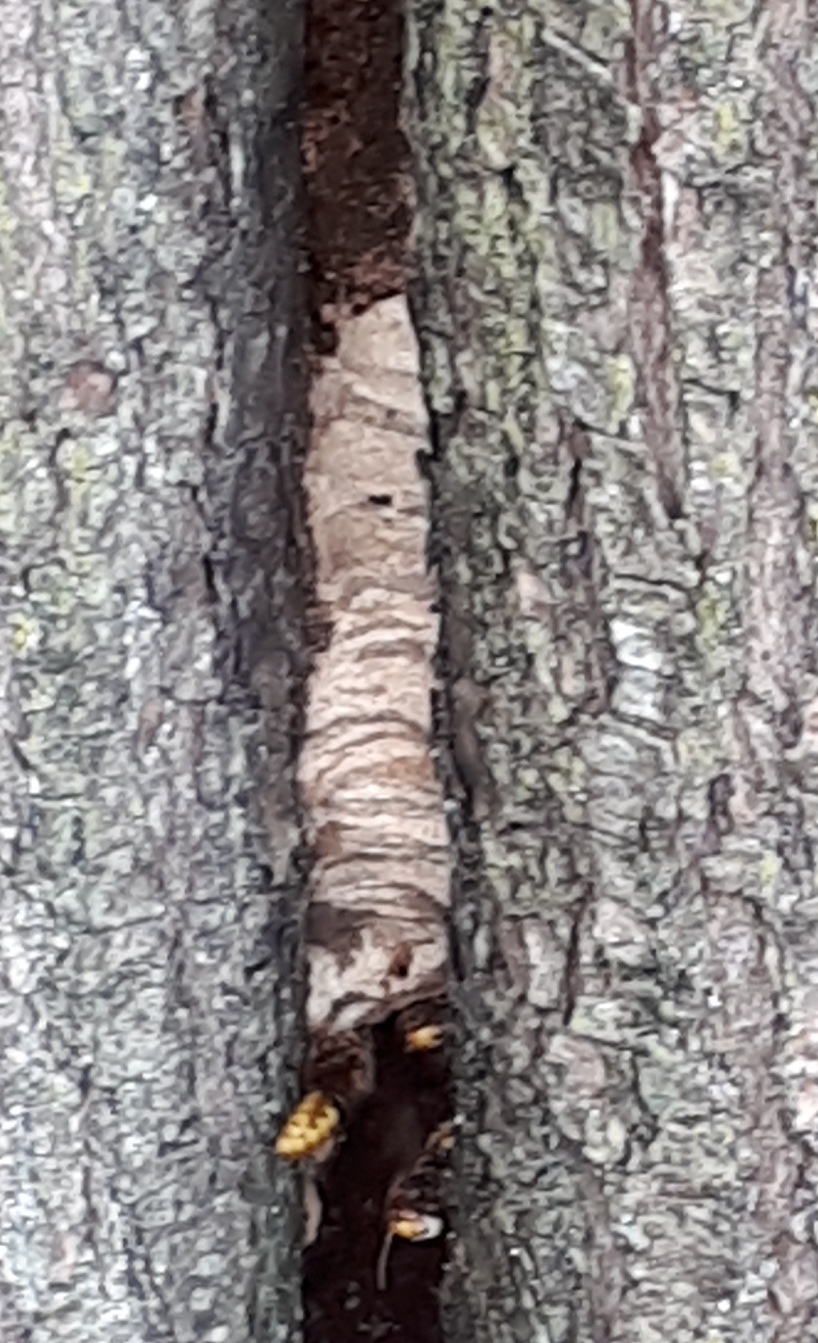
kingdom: Animalia
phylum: Arthropoda
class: Insecta
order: Hymenoptera
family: Vespidae
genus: Vespa
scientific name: Vespa crabro
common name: Hornet
